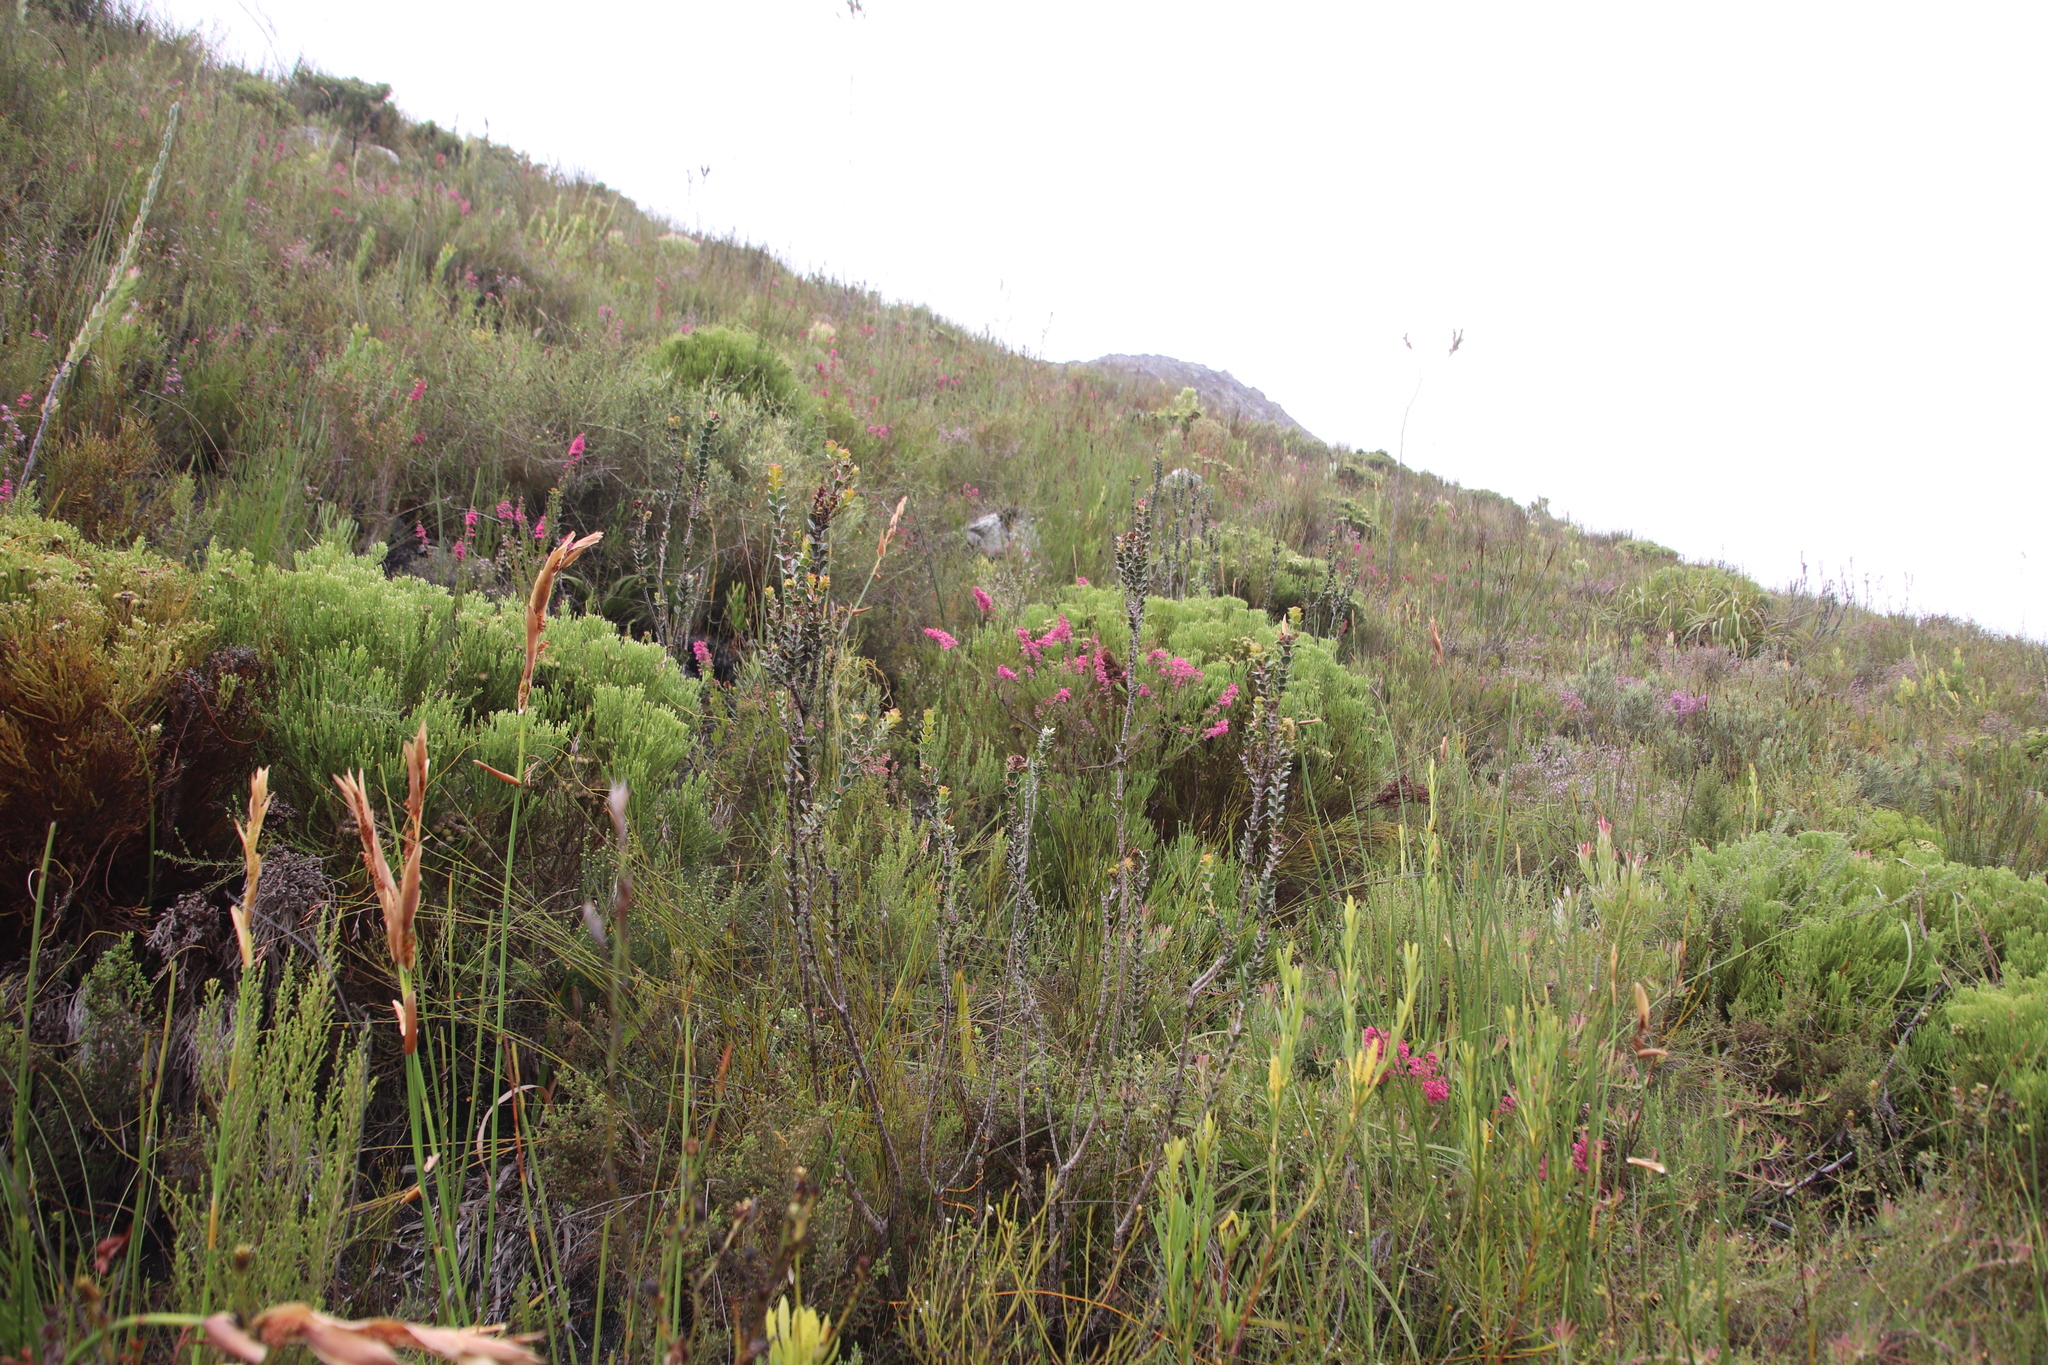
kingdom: Plantae
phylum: Tracheophyta
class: Magnoliopsida
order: Ericales
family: Ericaceae
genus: Erica
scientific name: Erica tenella
